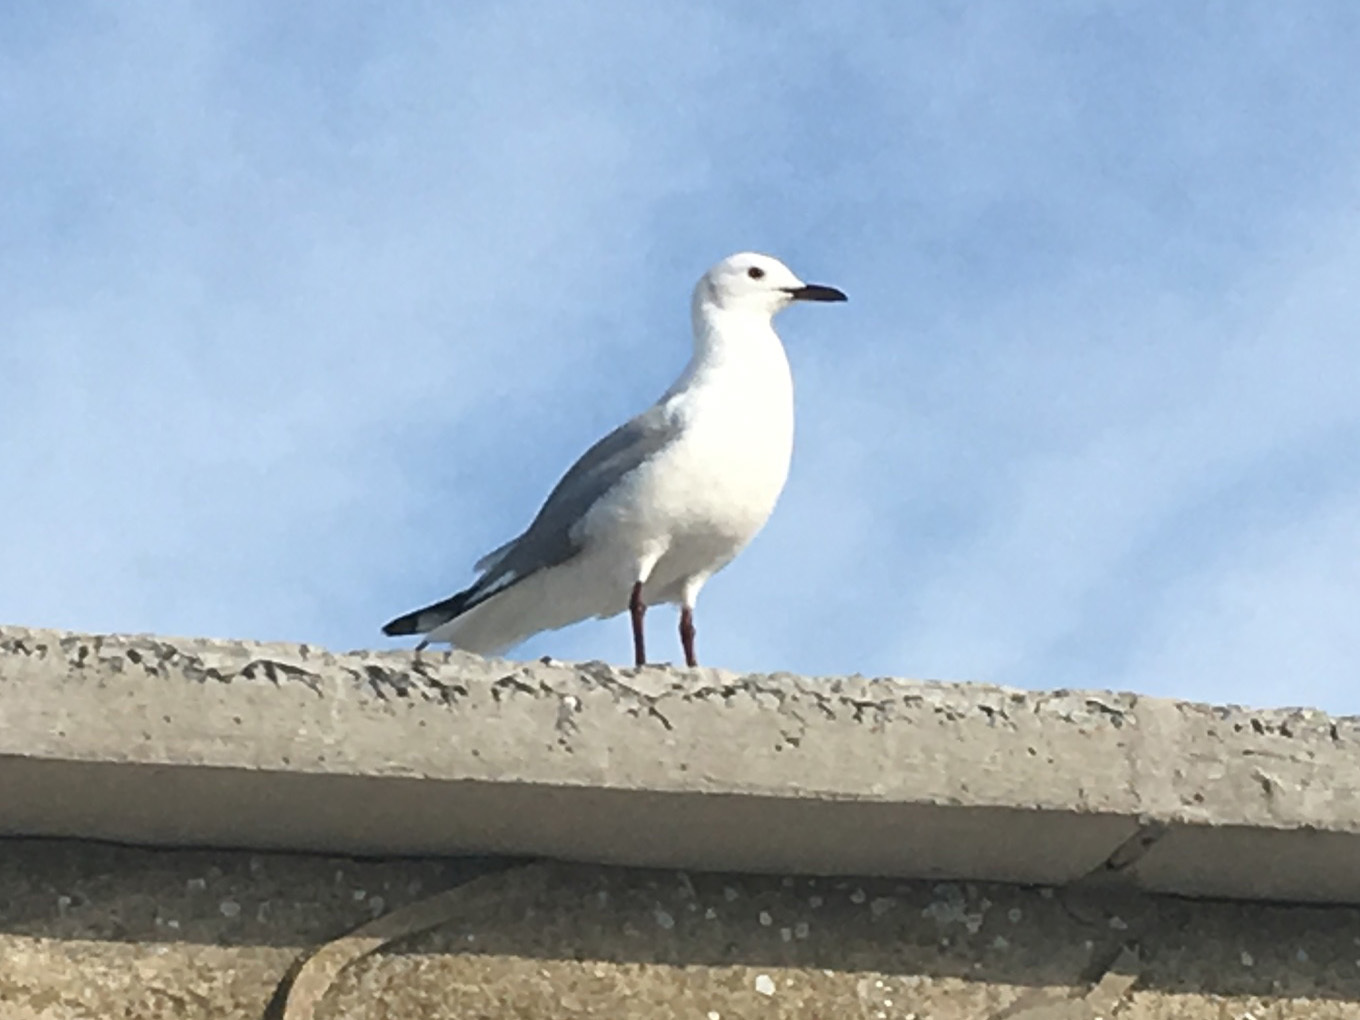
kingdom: Animalia
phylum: Chordata
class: Aves
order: Charadriiformes
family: Laridae
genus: Chroicocephalus
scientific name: Chroicocephalus hartlaubii
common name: Hartlaub's gull
